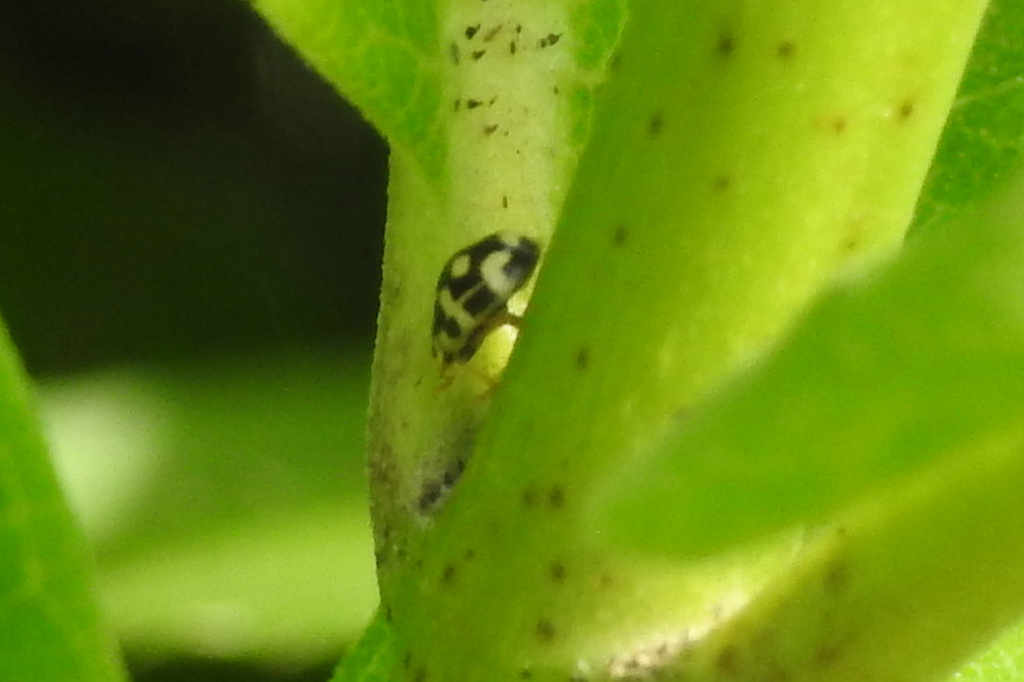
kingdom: Animalia
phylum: Arthropoda
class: Insecta
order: Coleoptera
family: Coccinellidae
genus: Propylaea
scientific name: Propylaea quatuordecimpunctata
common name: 14-spotted ladybird beetle
